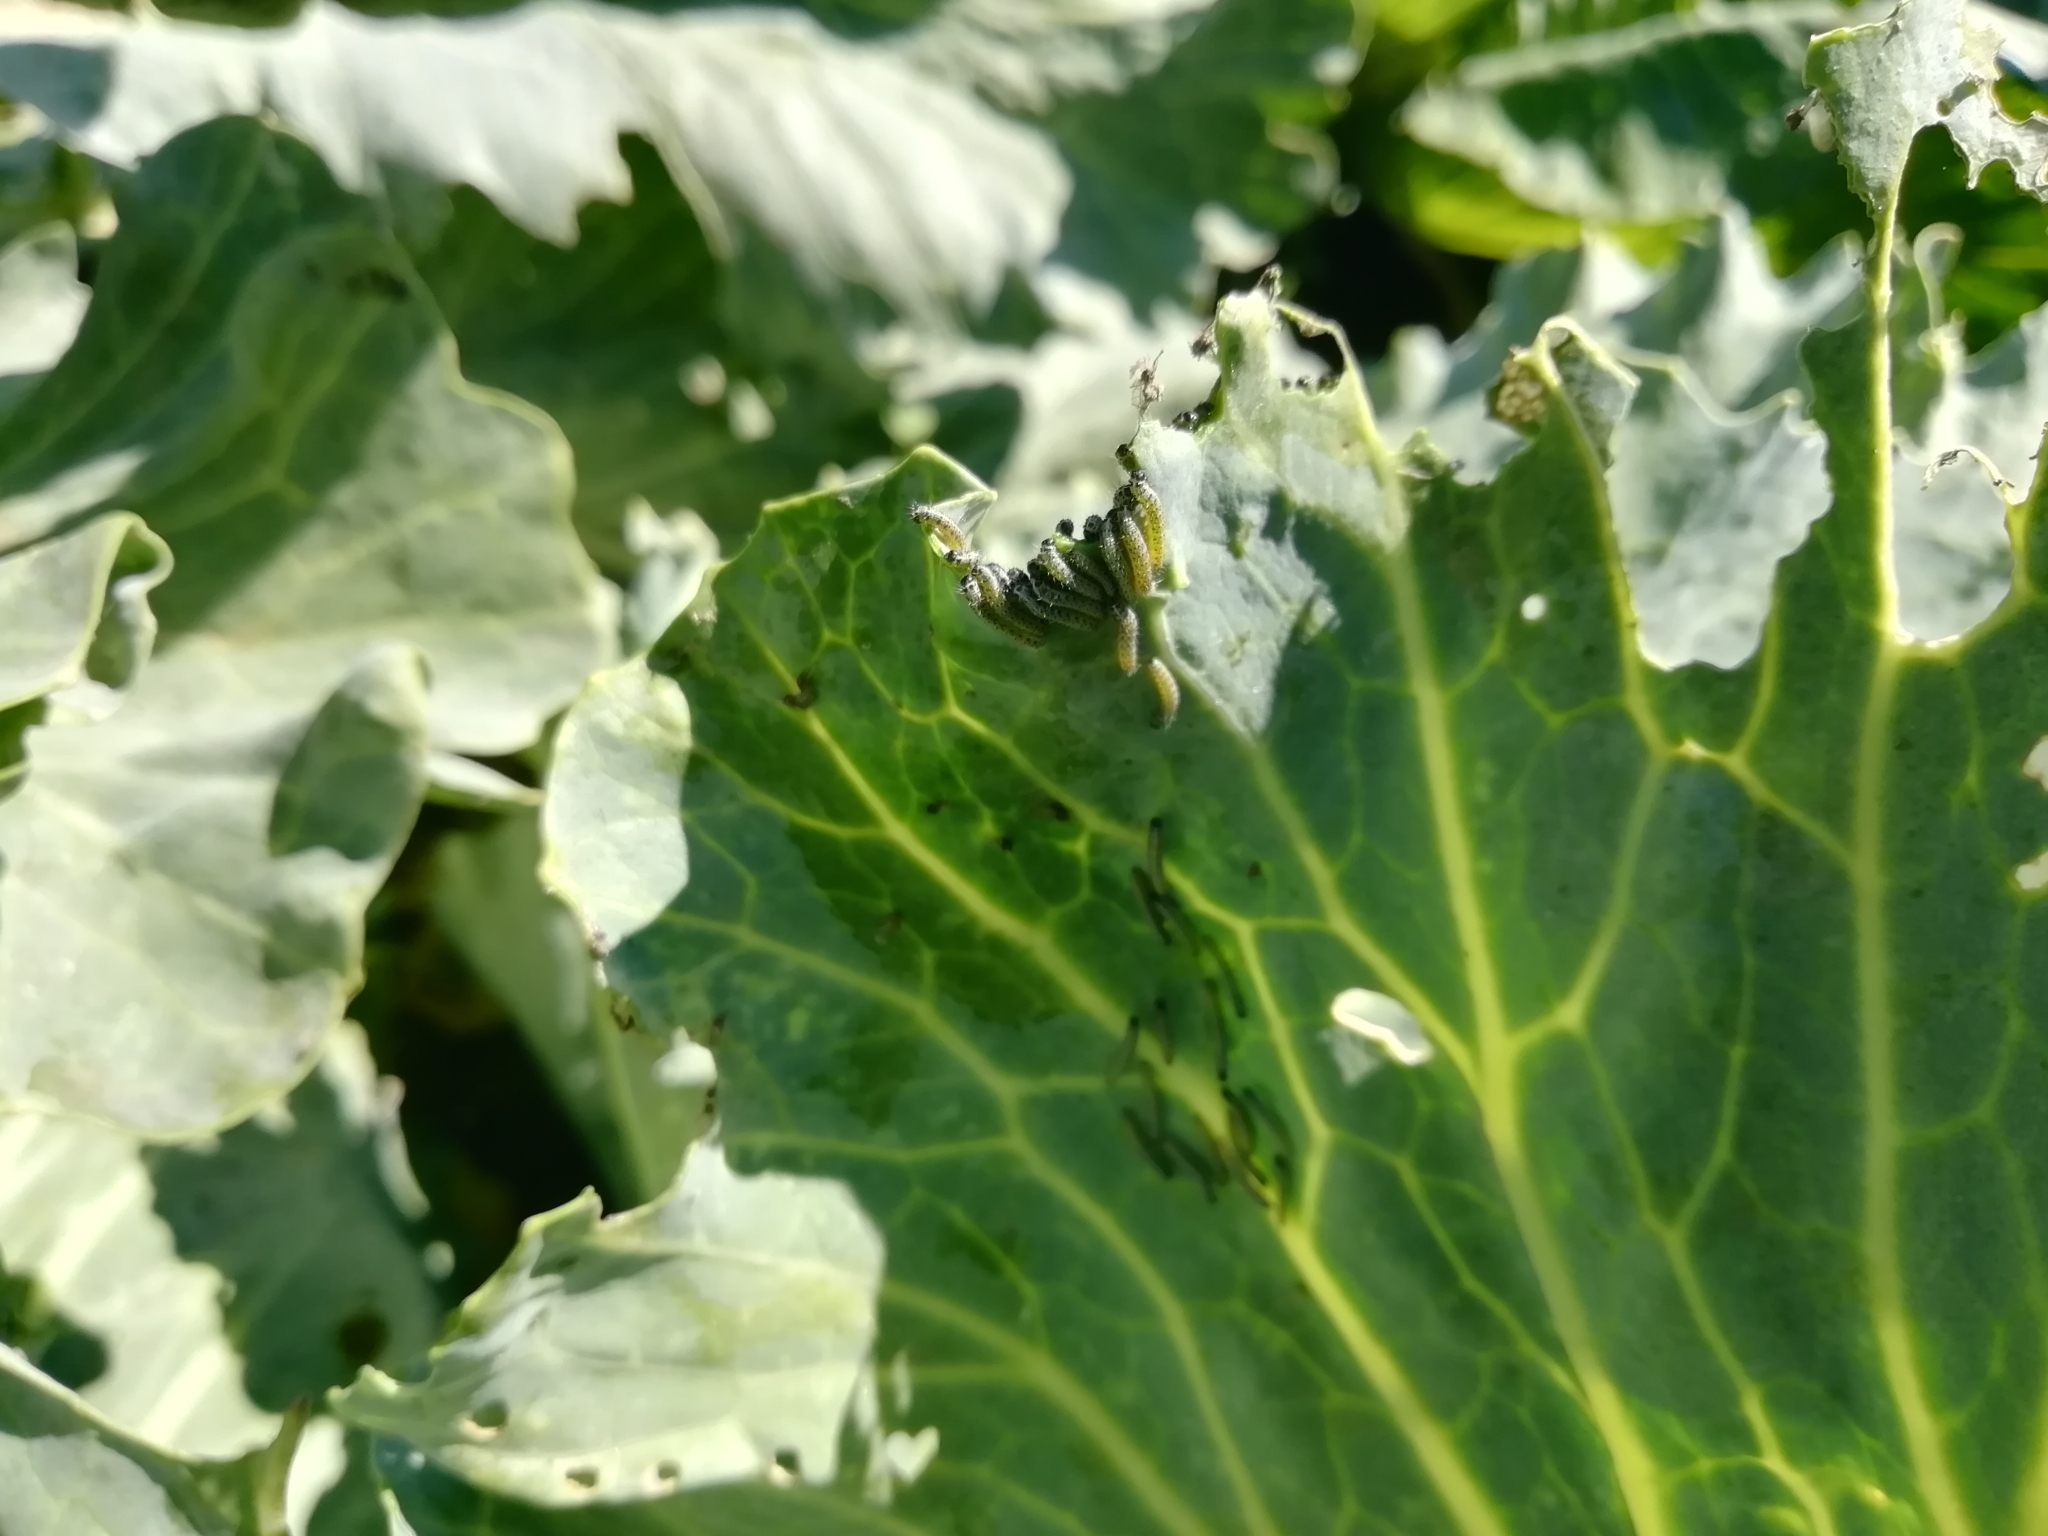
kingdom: Animalia
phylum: Arthropoda
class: Insecta
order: Lepidoptera
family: Pieridae
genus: Pieris
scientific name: Pieris brassicae
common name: Large white
